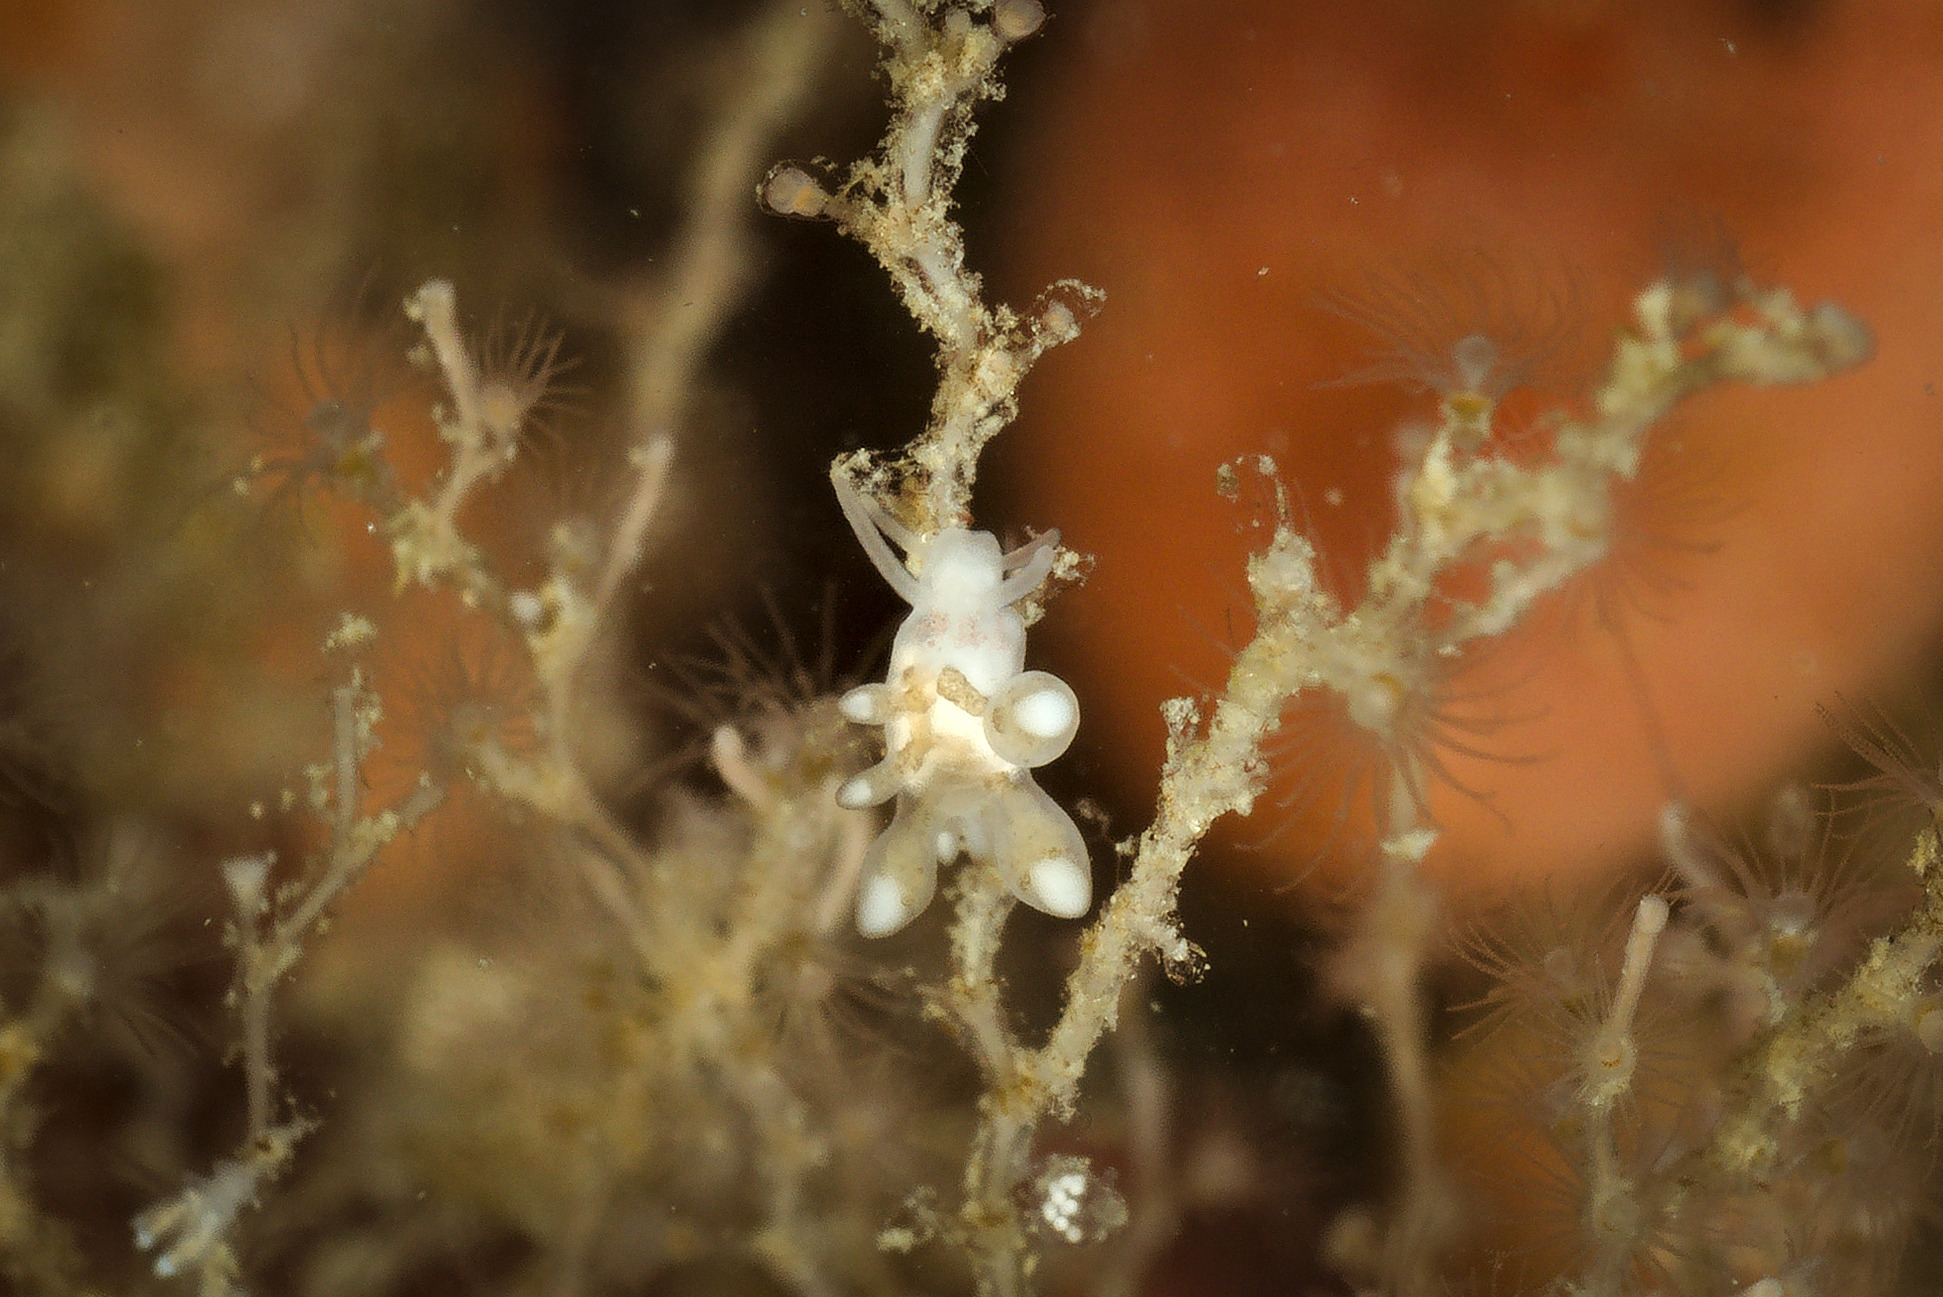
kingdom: Animalia
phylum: Mollusca
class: Gastropoda
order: Nudibranchia
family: Tergipedidae
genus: Tergipes
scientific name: Tergipes tergipes
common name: Johnston's balloon eolis
